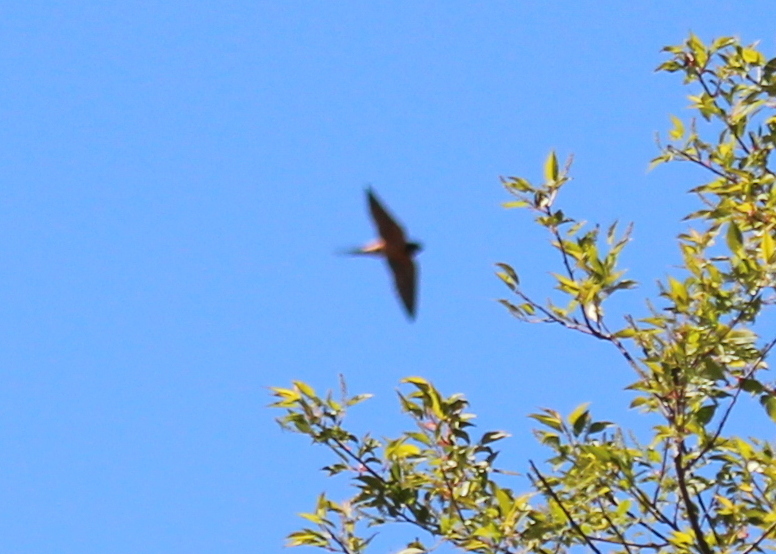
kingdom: Animalia
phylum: Chordata
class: Aves
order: Passeriformes
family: Hirundinidae
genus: Hirundo
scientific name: Hirundo rustica
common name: Barn swallow
